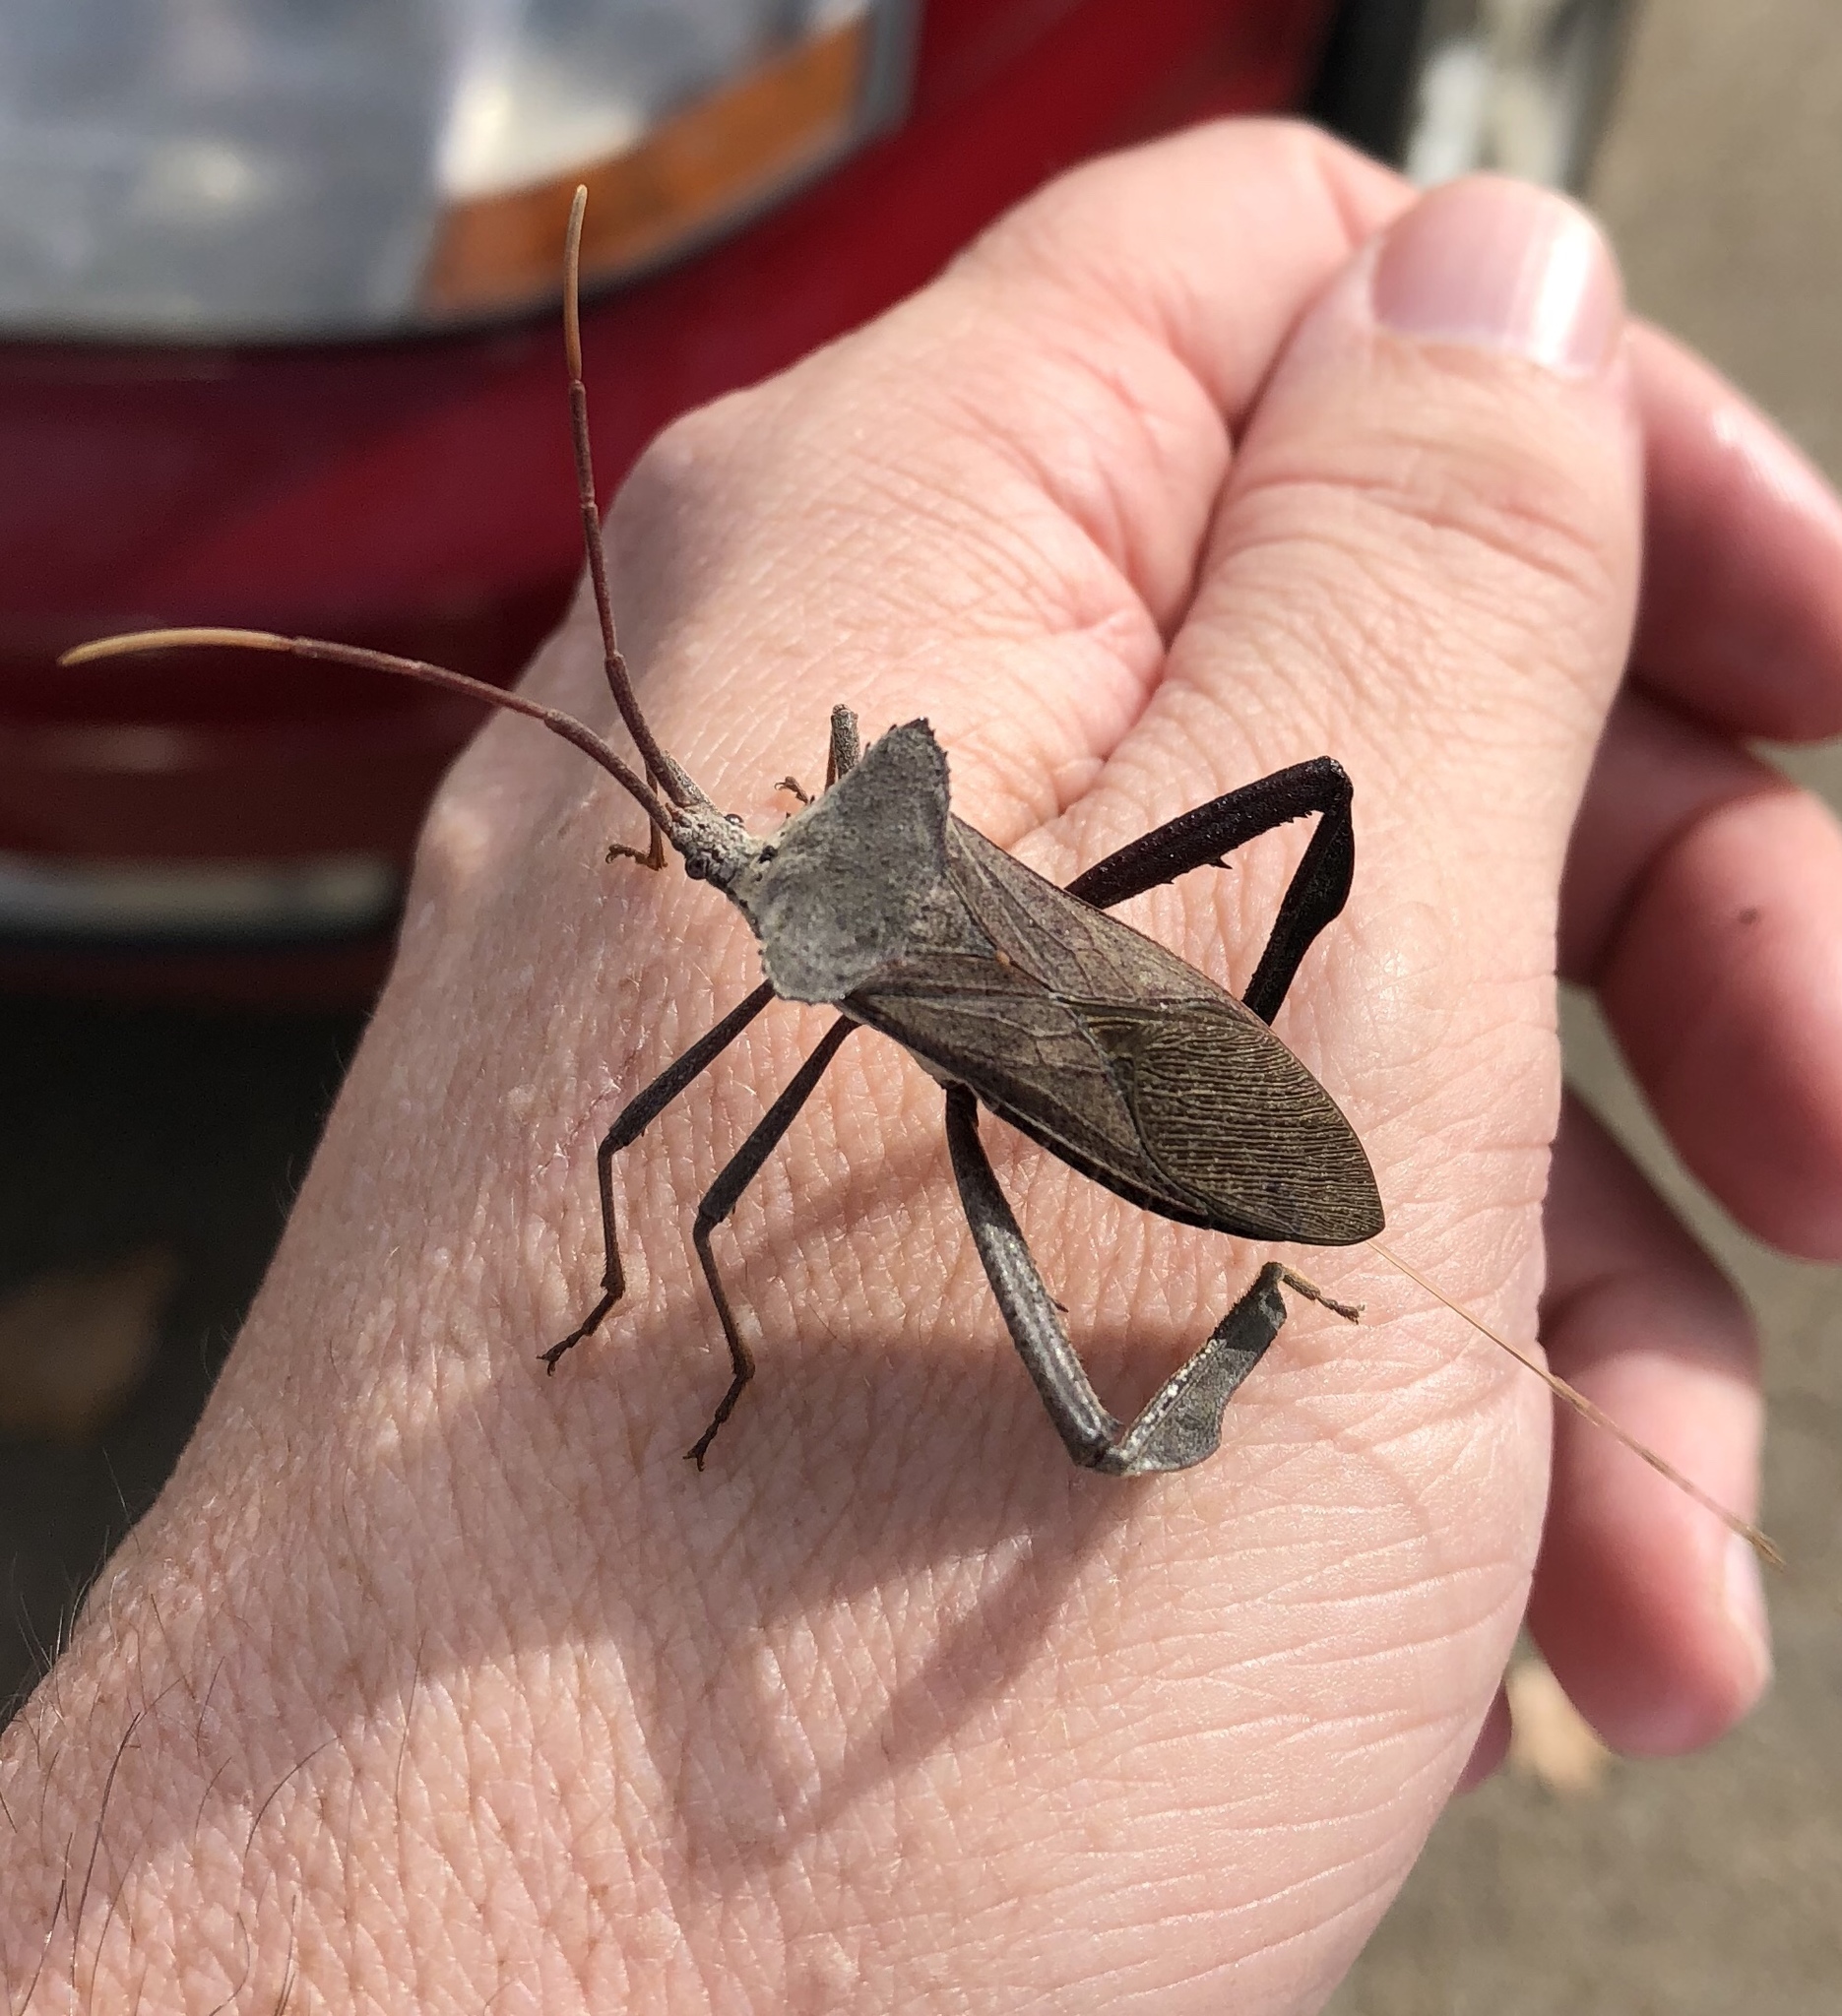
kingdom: Animalia
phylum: Arthropoda
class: Insecta
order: Hemiptera
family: Coreidae
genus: Acanthocephala
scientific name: Acanthocephala declivis
